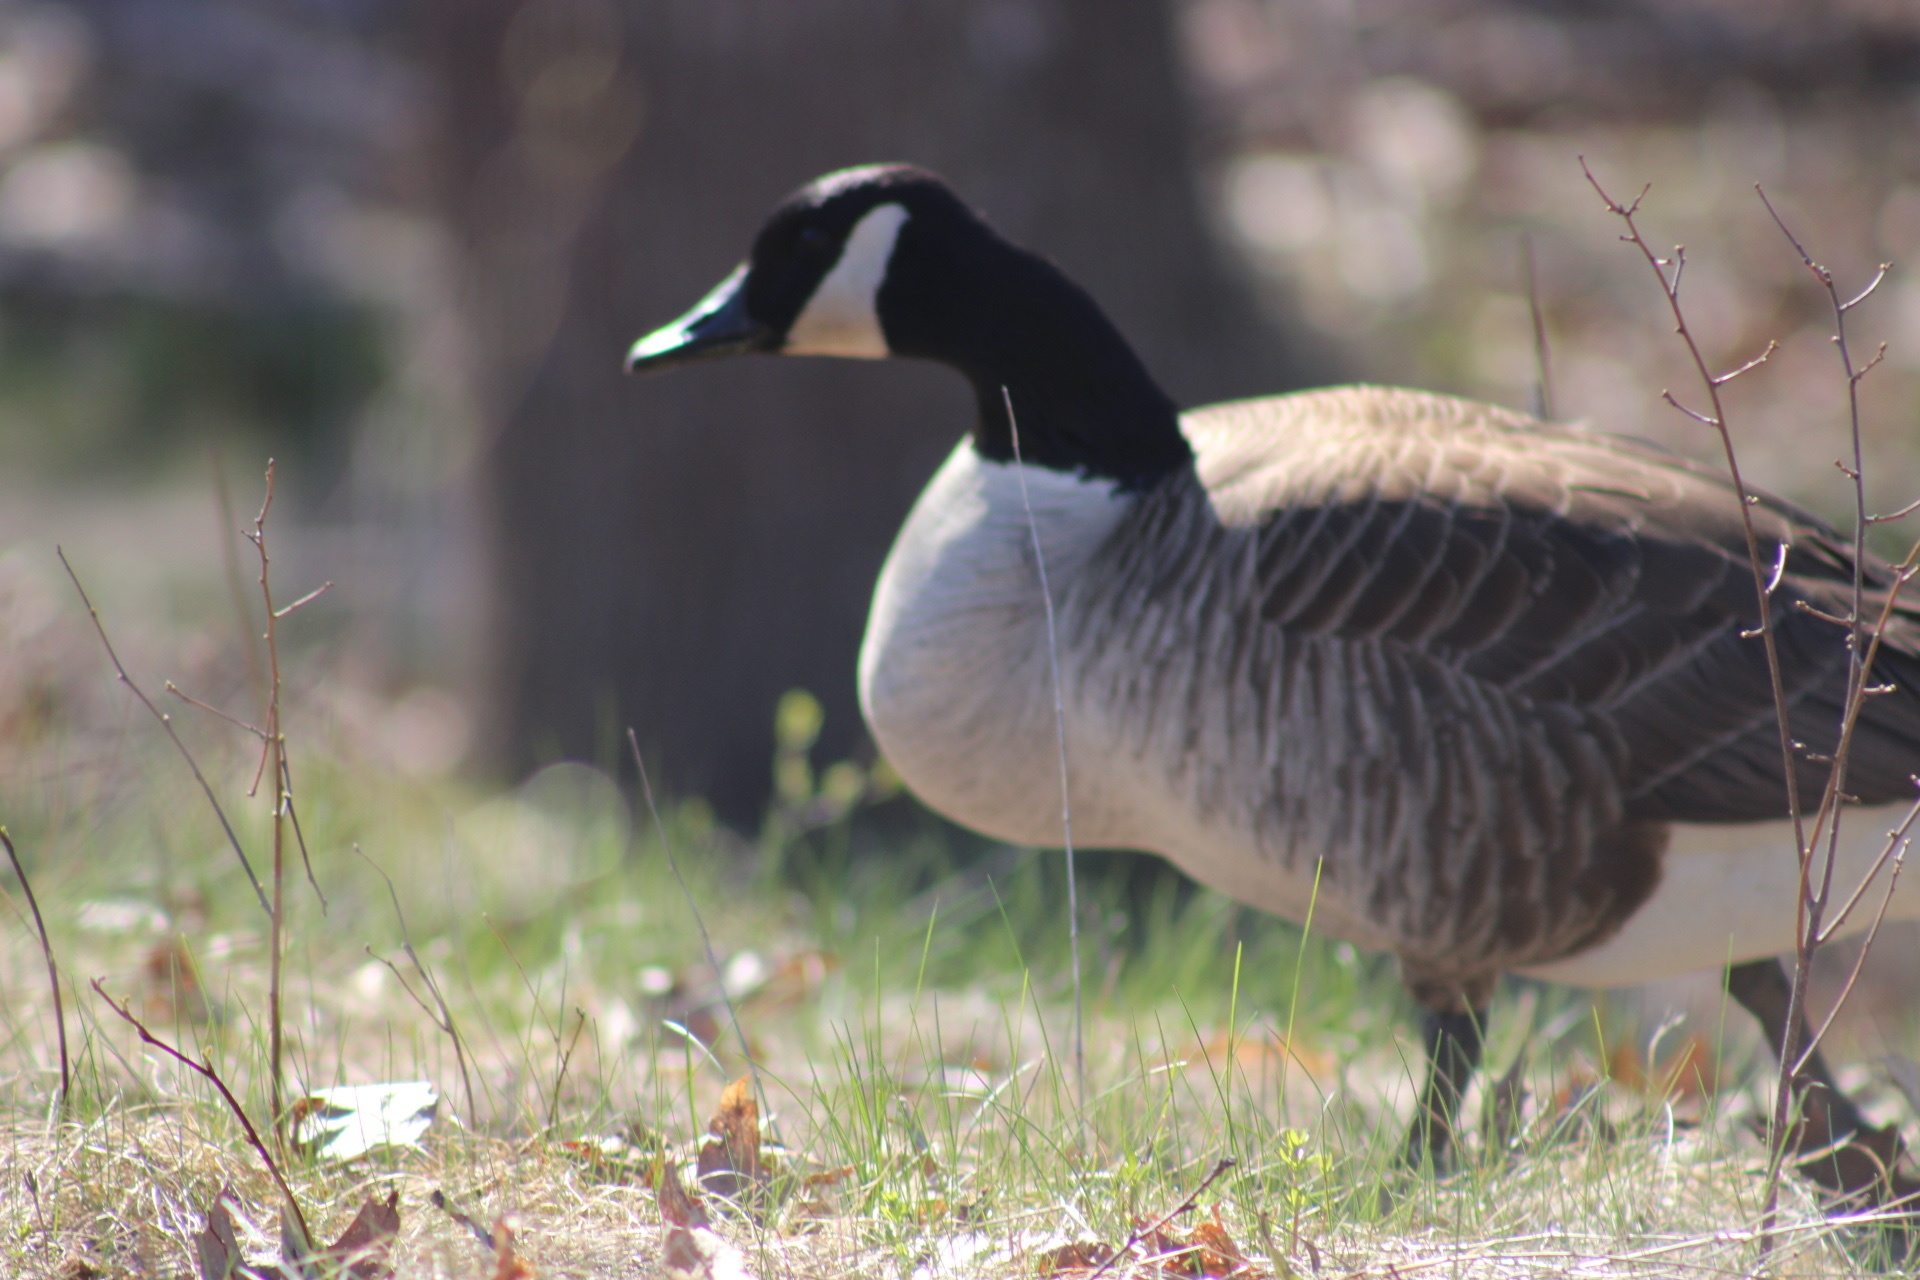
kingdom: Animalia
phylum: Chordata
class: Aves
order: Anseriformes
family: Anatidae
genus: Branta
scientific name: Branta canadensis
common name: Canada goose
